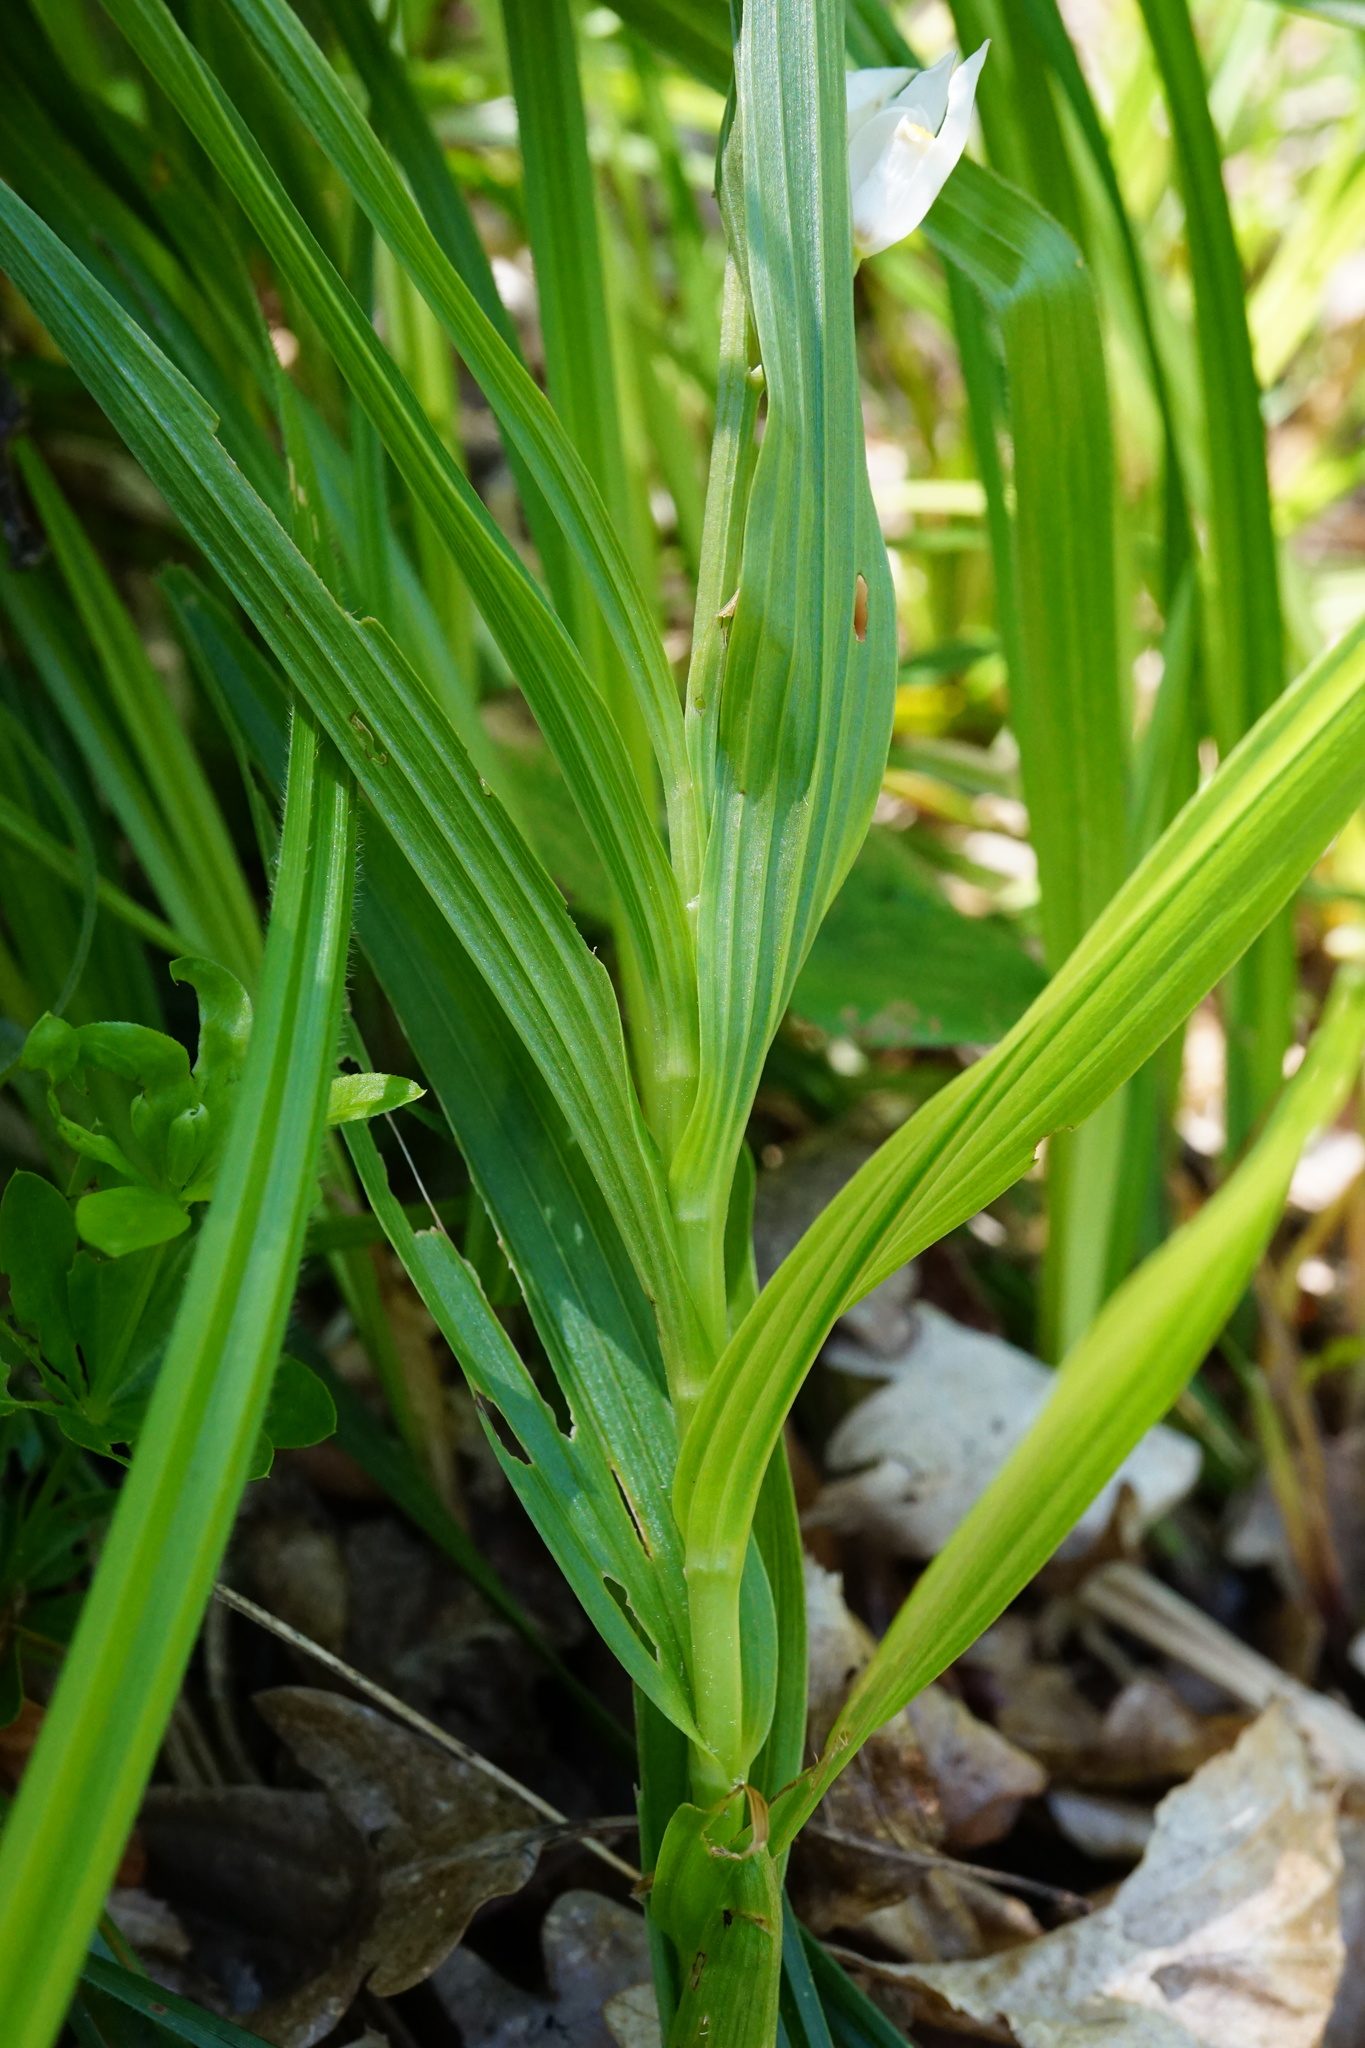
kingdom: Plantae
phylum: Tracheophyta
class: Liliopsida
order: Asparagales
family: Orchidaceae
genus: Cephalanthera
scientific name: Cephalanthera longifolia
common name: Narrow-leaved helleborine
